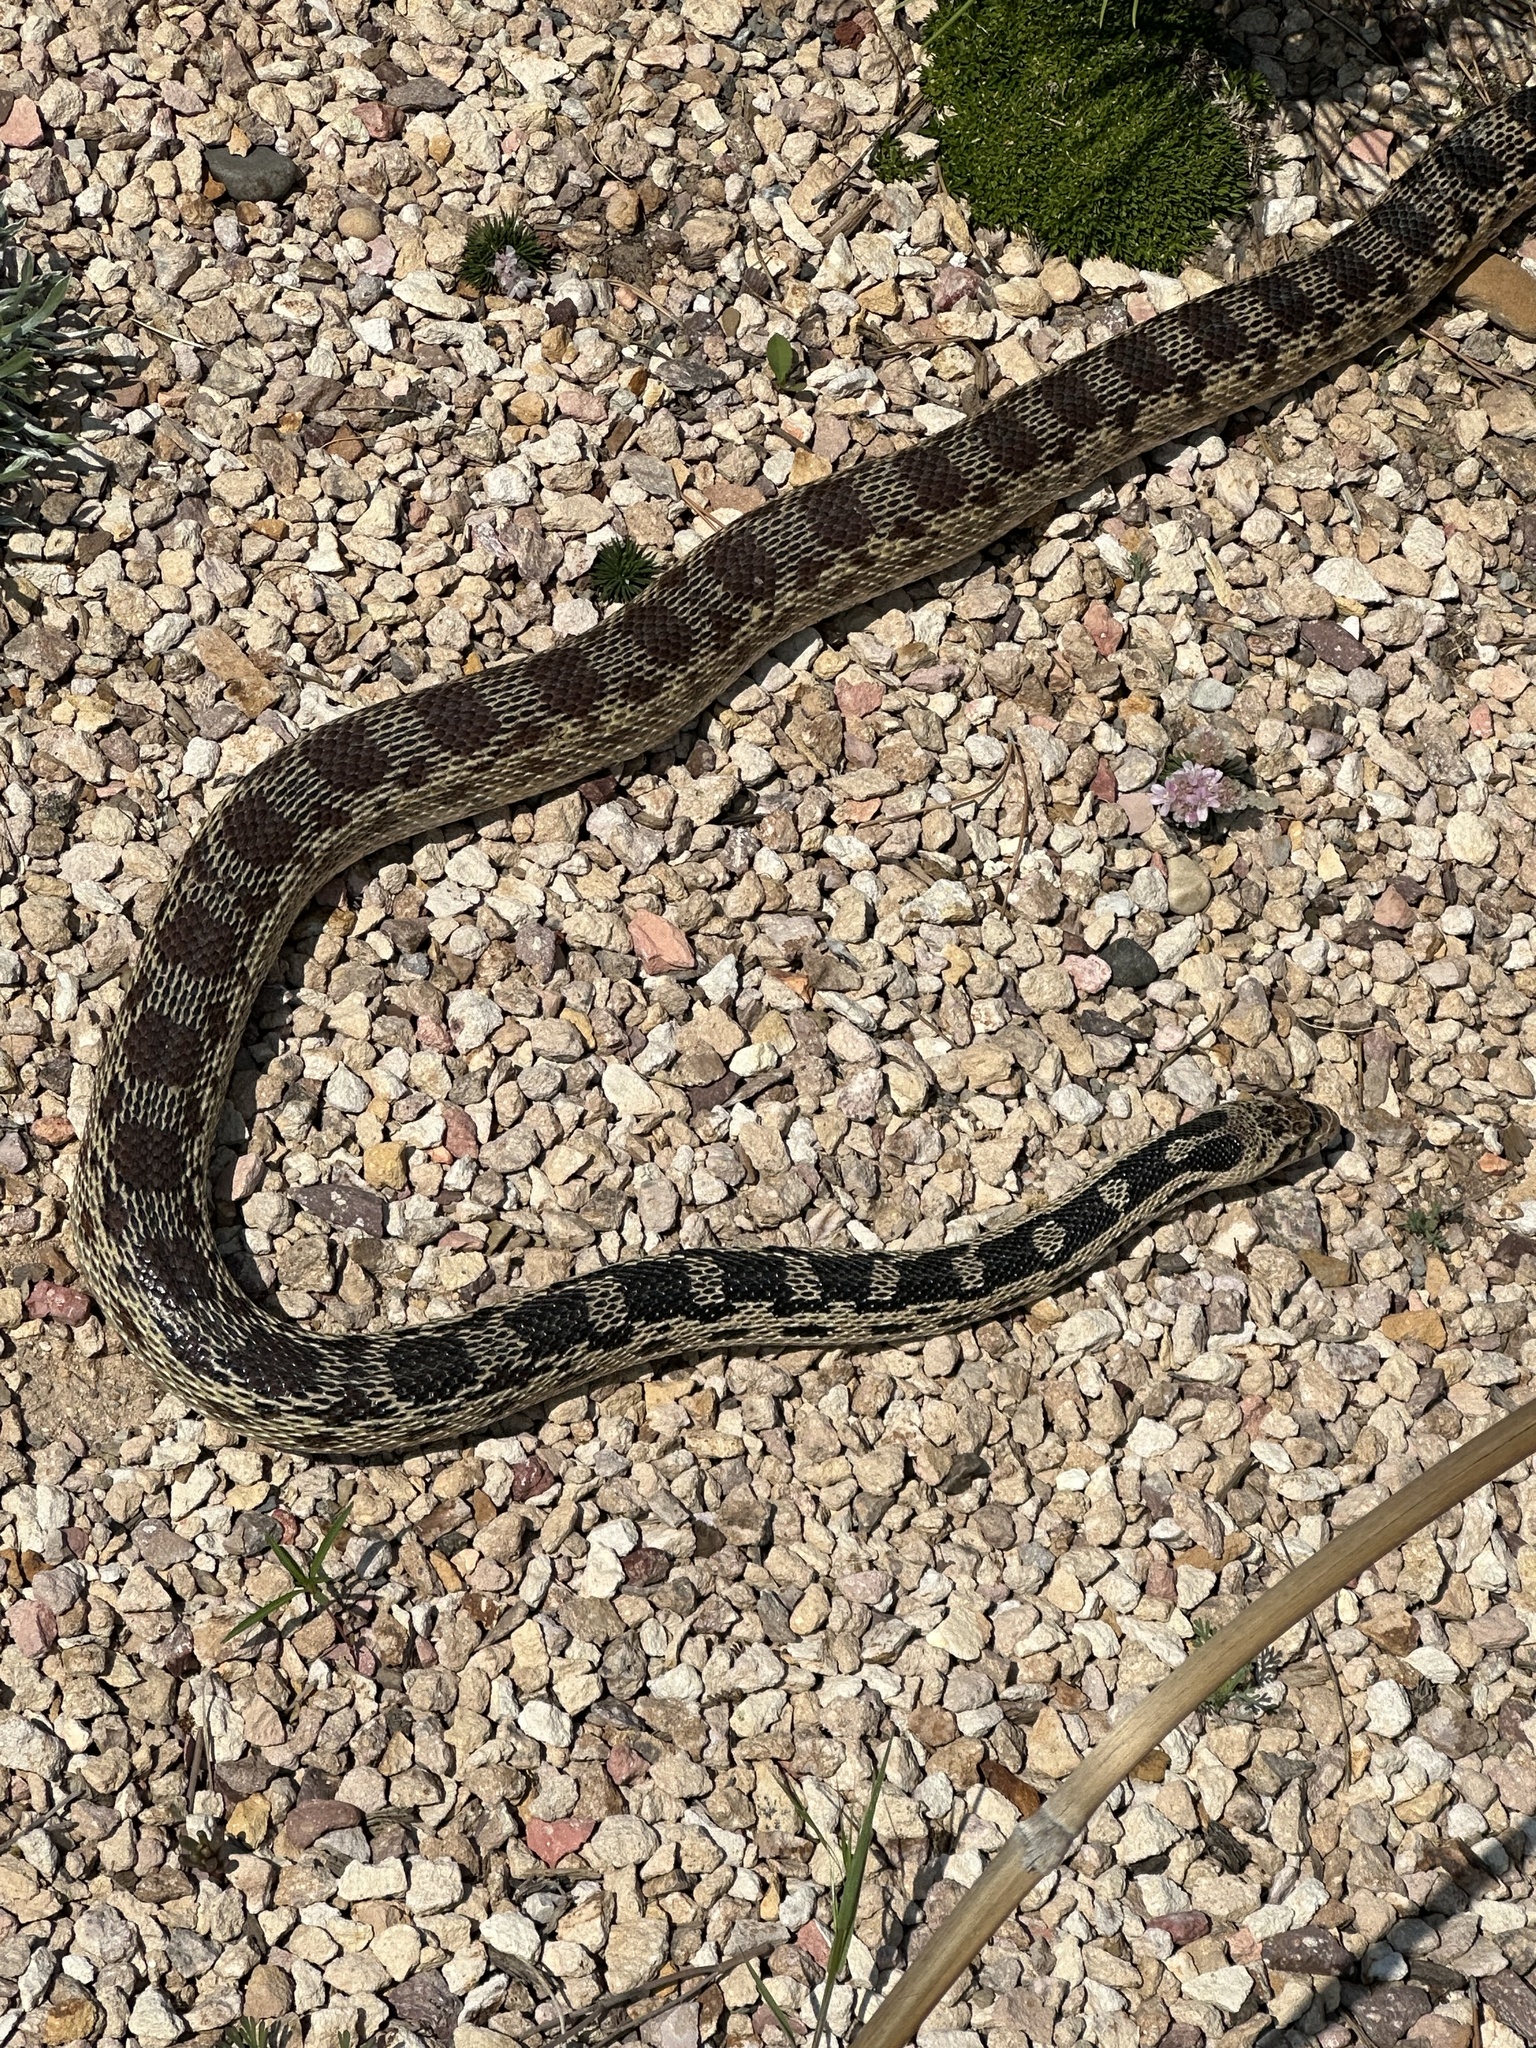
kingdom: Animalia
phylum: Chordata
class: Squamata
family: Colubridae
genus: Pituophis
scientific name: Pituophis catenifer
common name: Gopher snake
